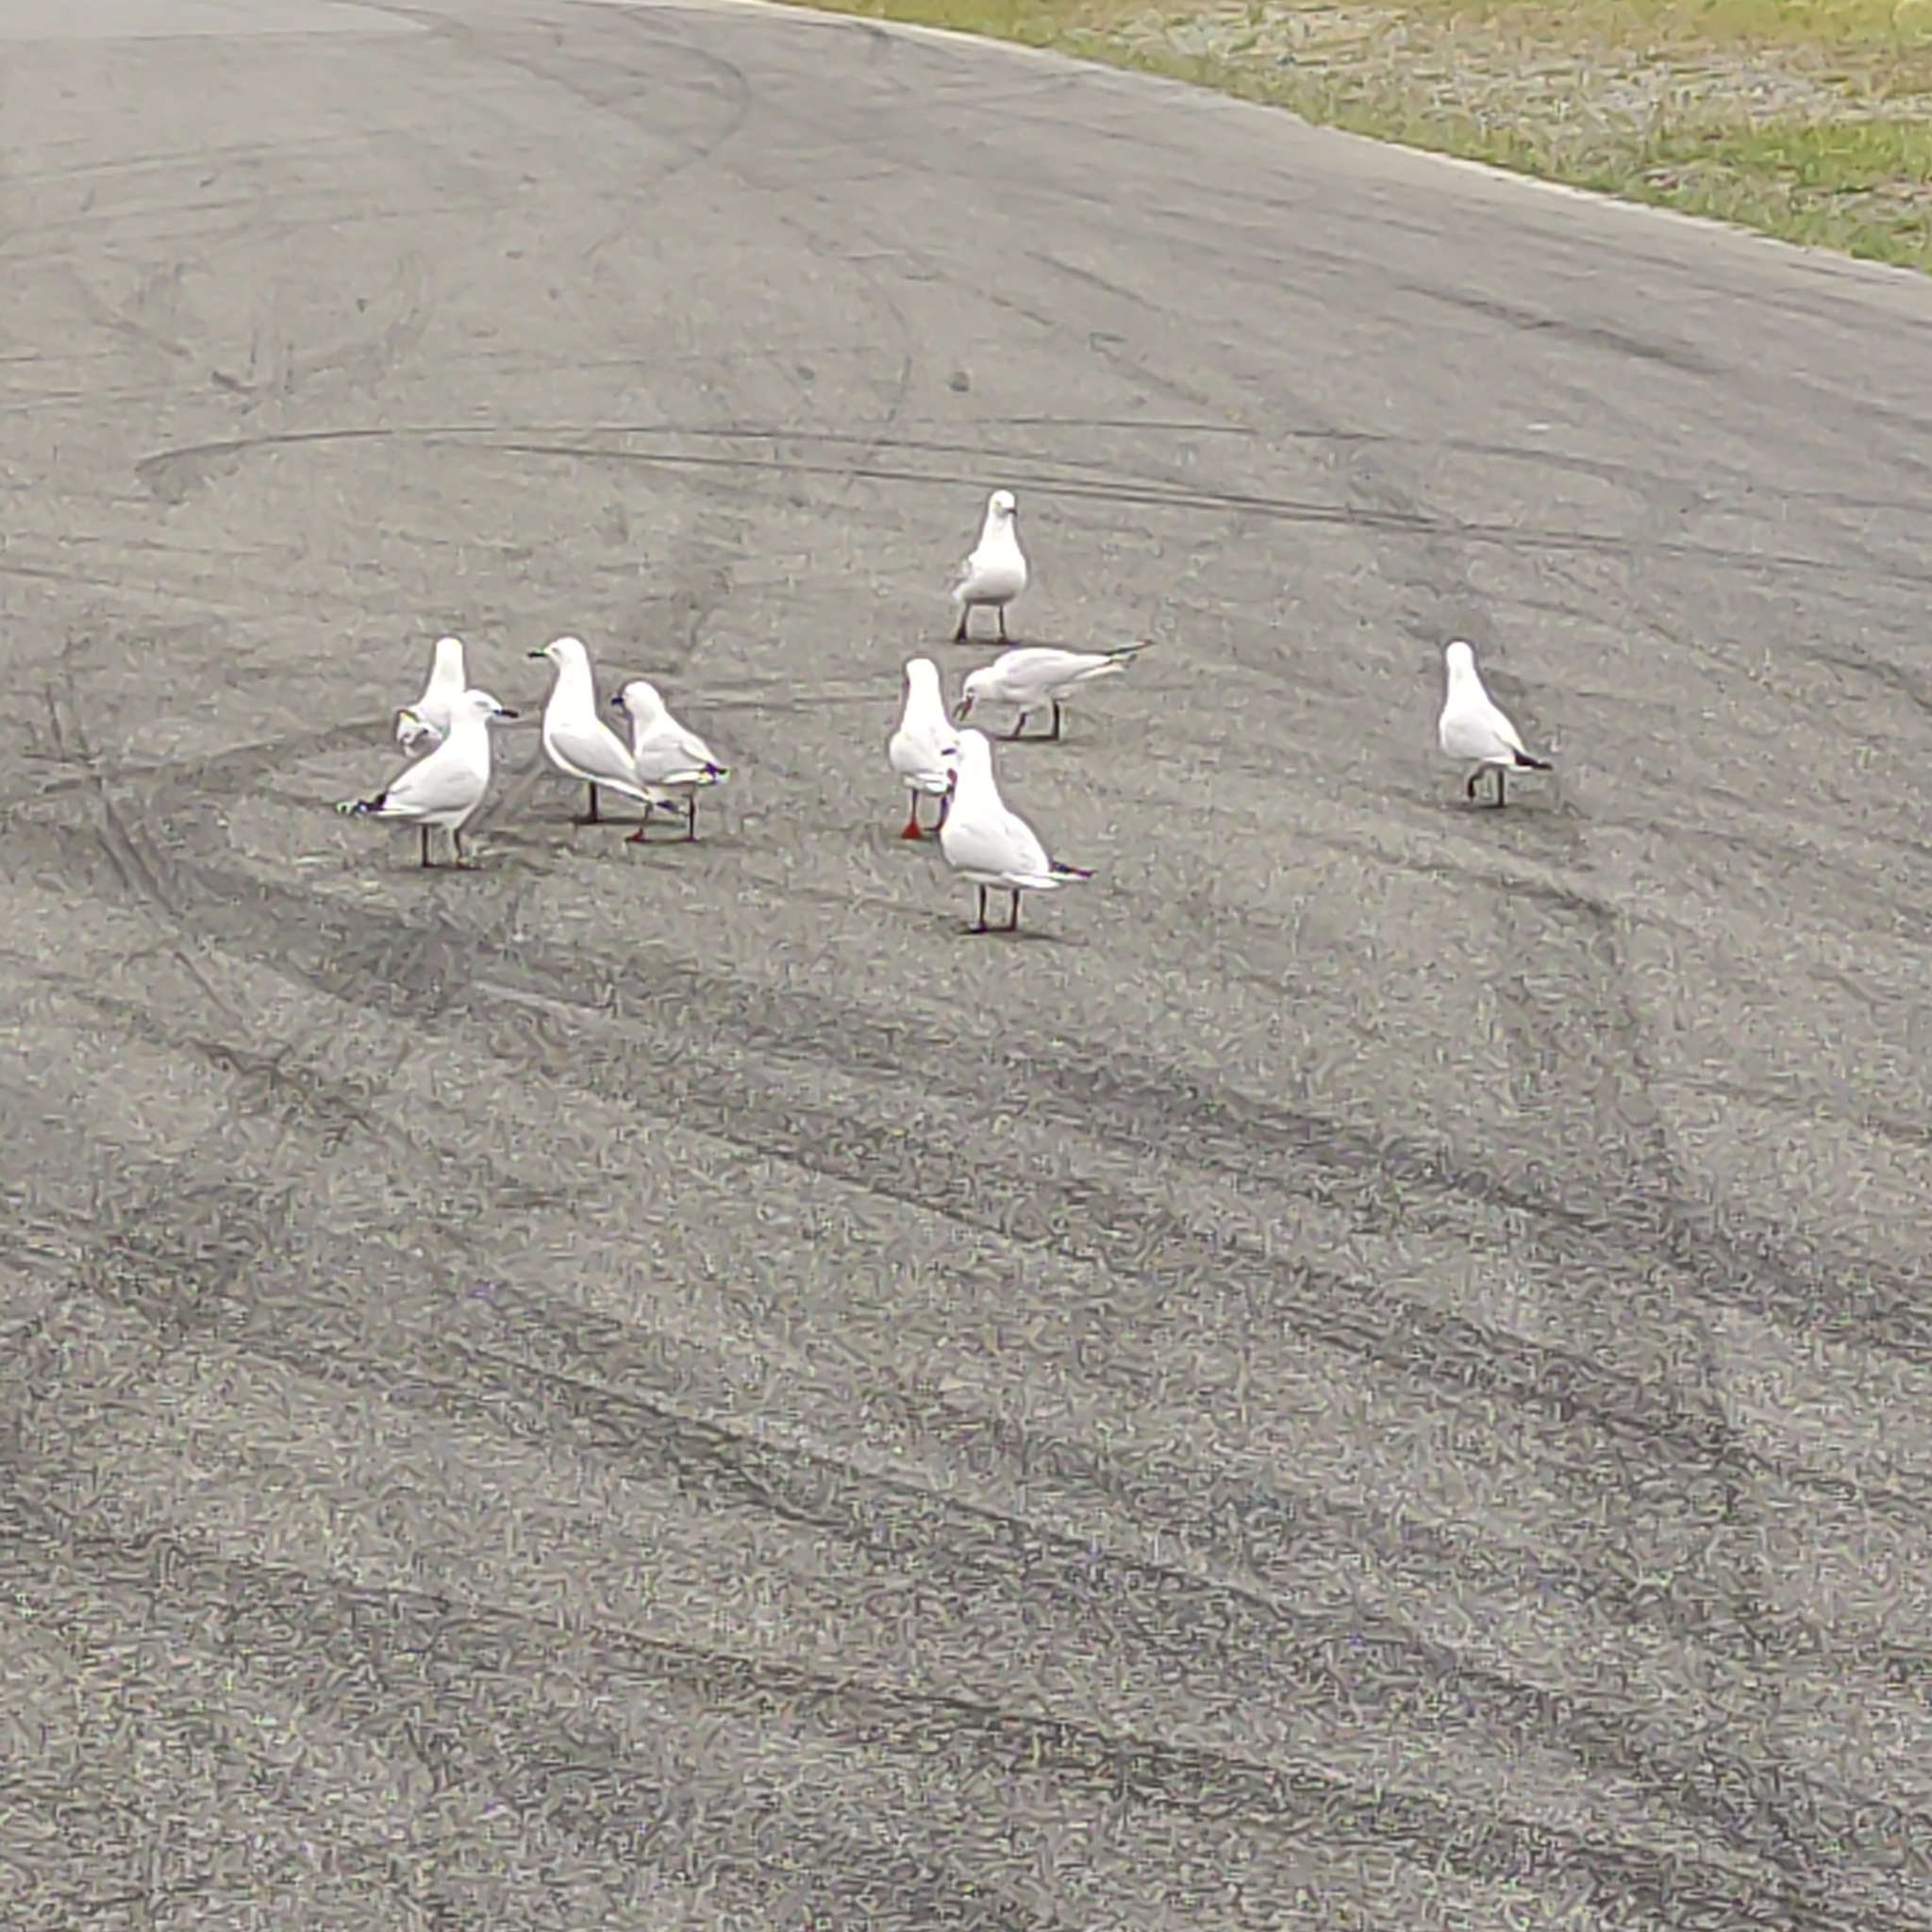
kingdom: Animalia
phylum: Chordata
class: Aves
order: Charadriiformes
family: Laridae
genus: Chroicocephalus
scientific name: Chroicocephalus bulleri
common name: Black-billed gull
